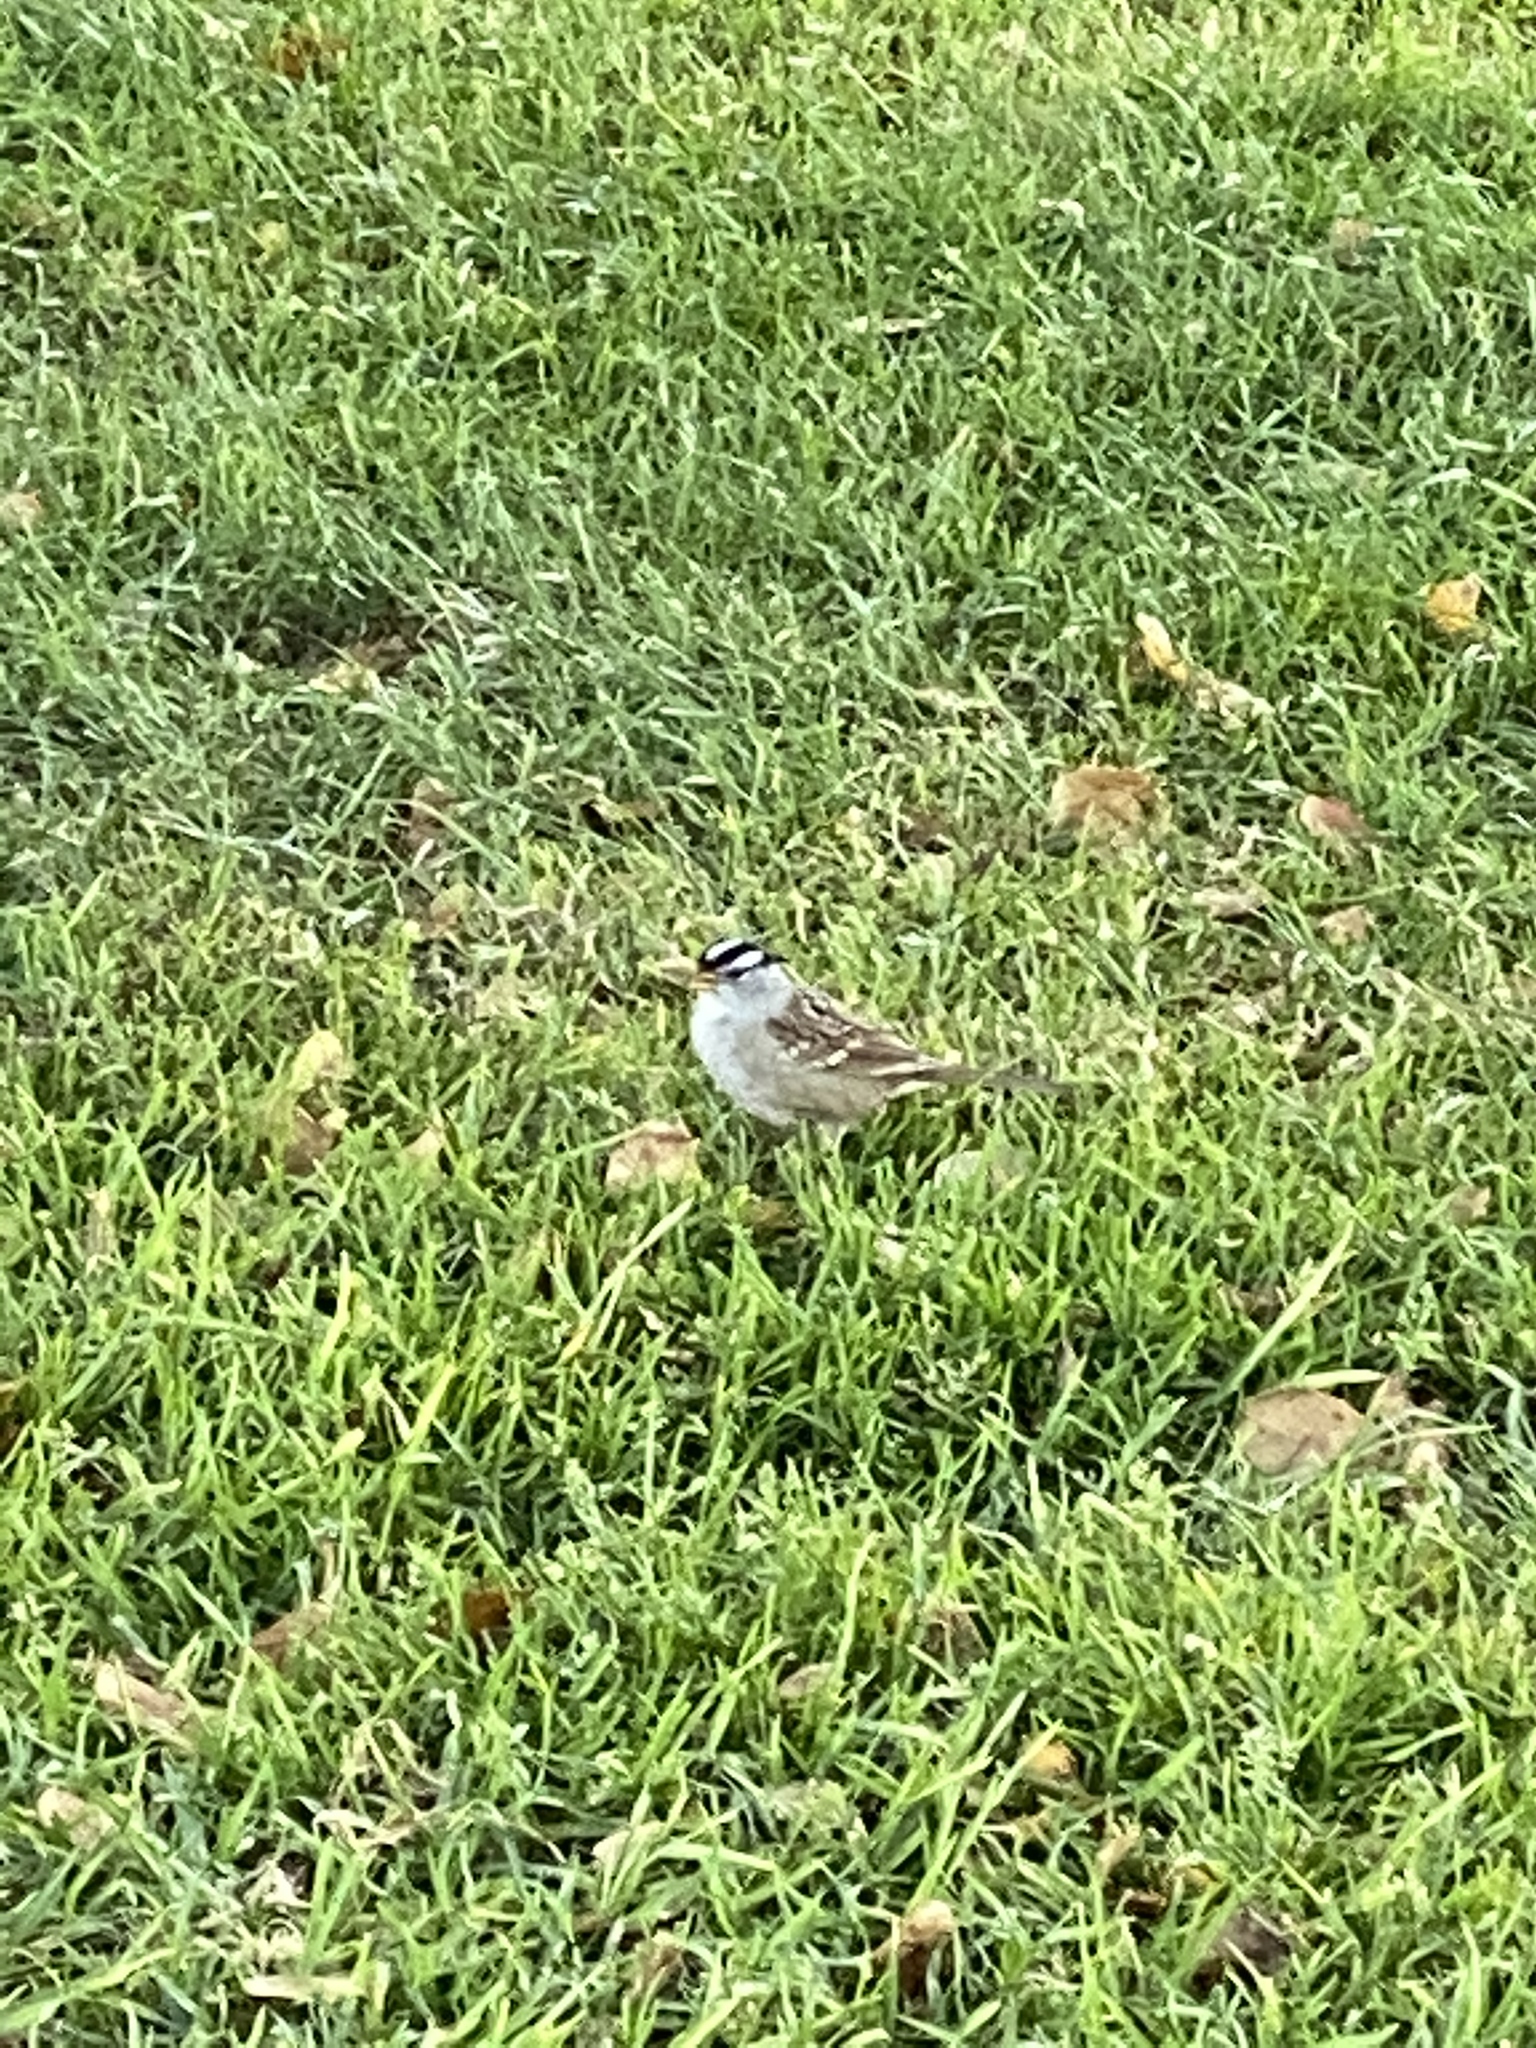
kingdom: Animalia
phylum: Chordata
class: Aves
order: Passeriformes
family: Passerellidae
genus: Zonotrichia
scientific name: Zonotrichia leucophrys
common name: White-crowned sparrow
